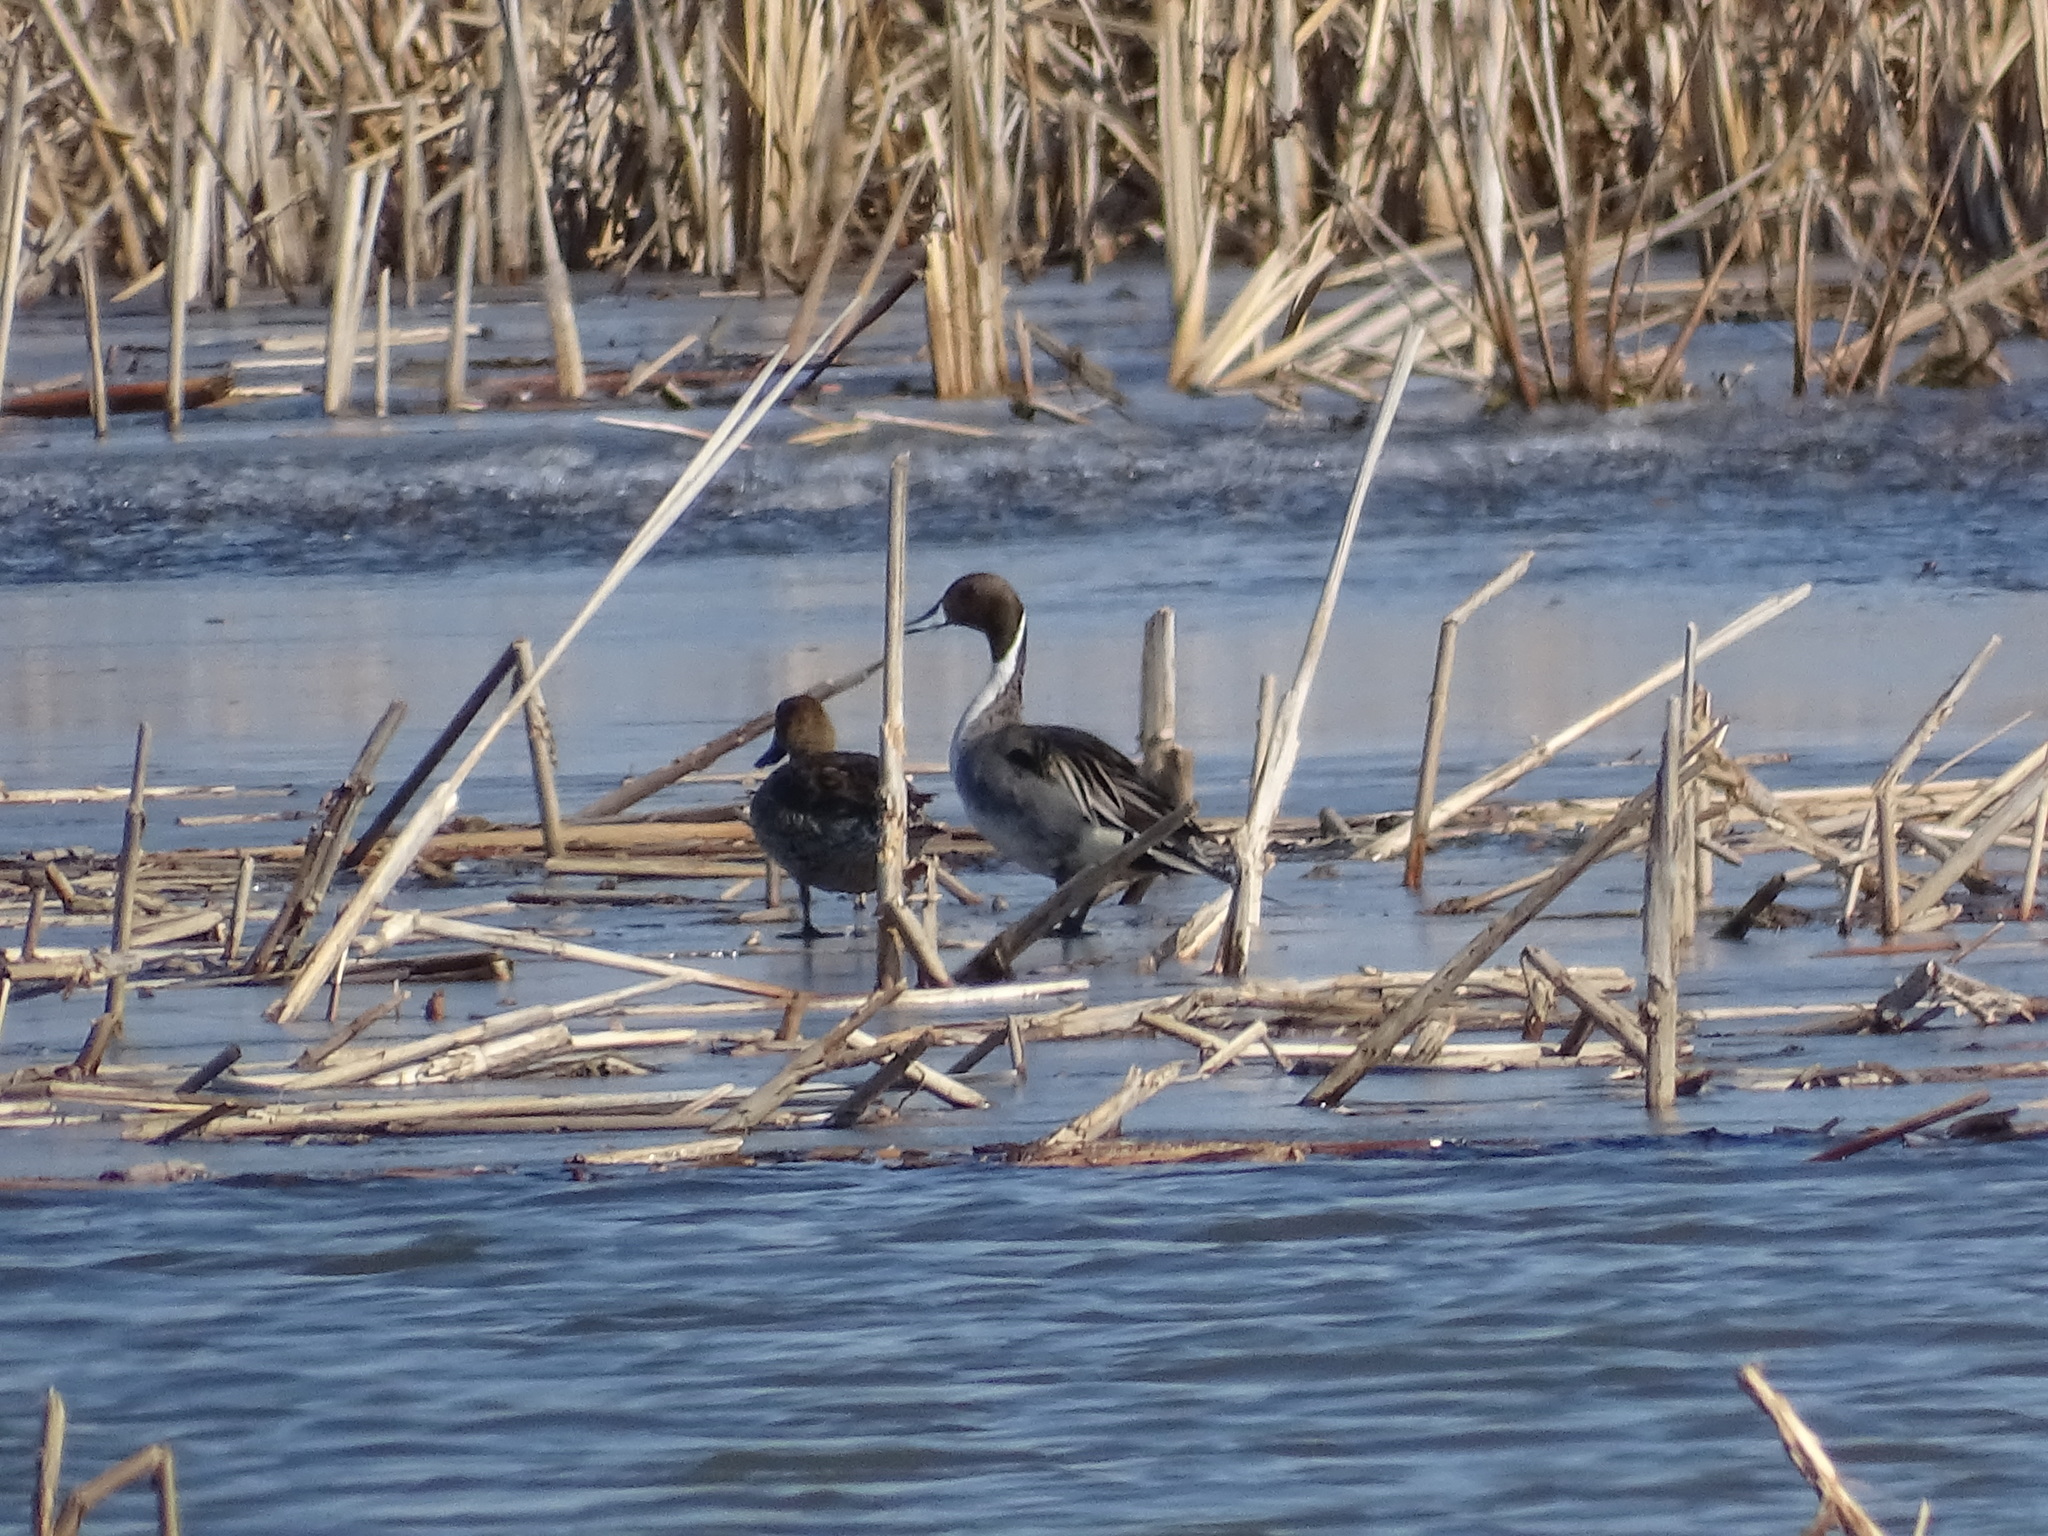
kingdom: Animalia
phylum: Chordata
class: Aves
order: Anseriformes
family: Anatidae
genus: Anas
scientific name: Anas acuta
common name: Northern pintail
